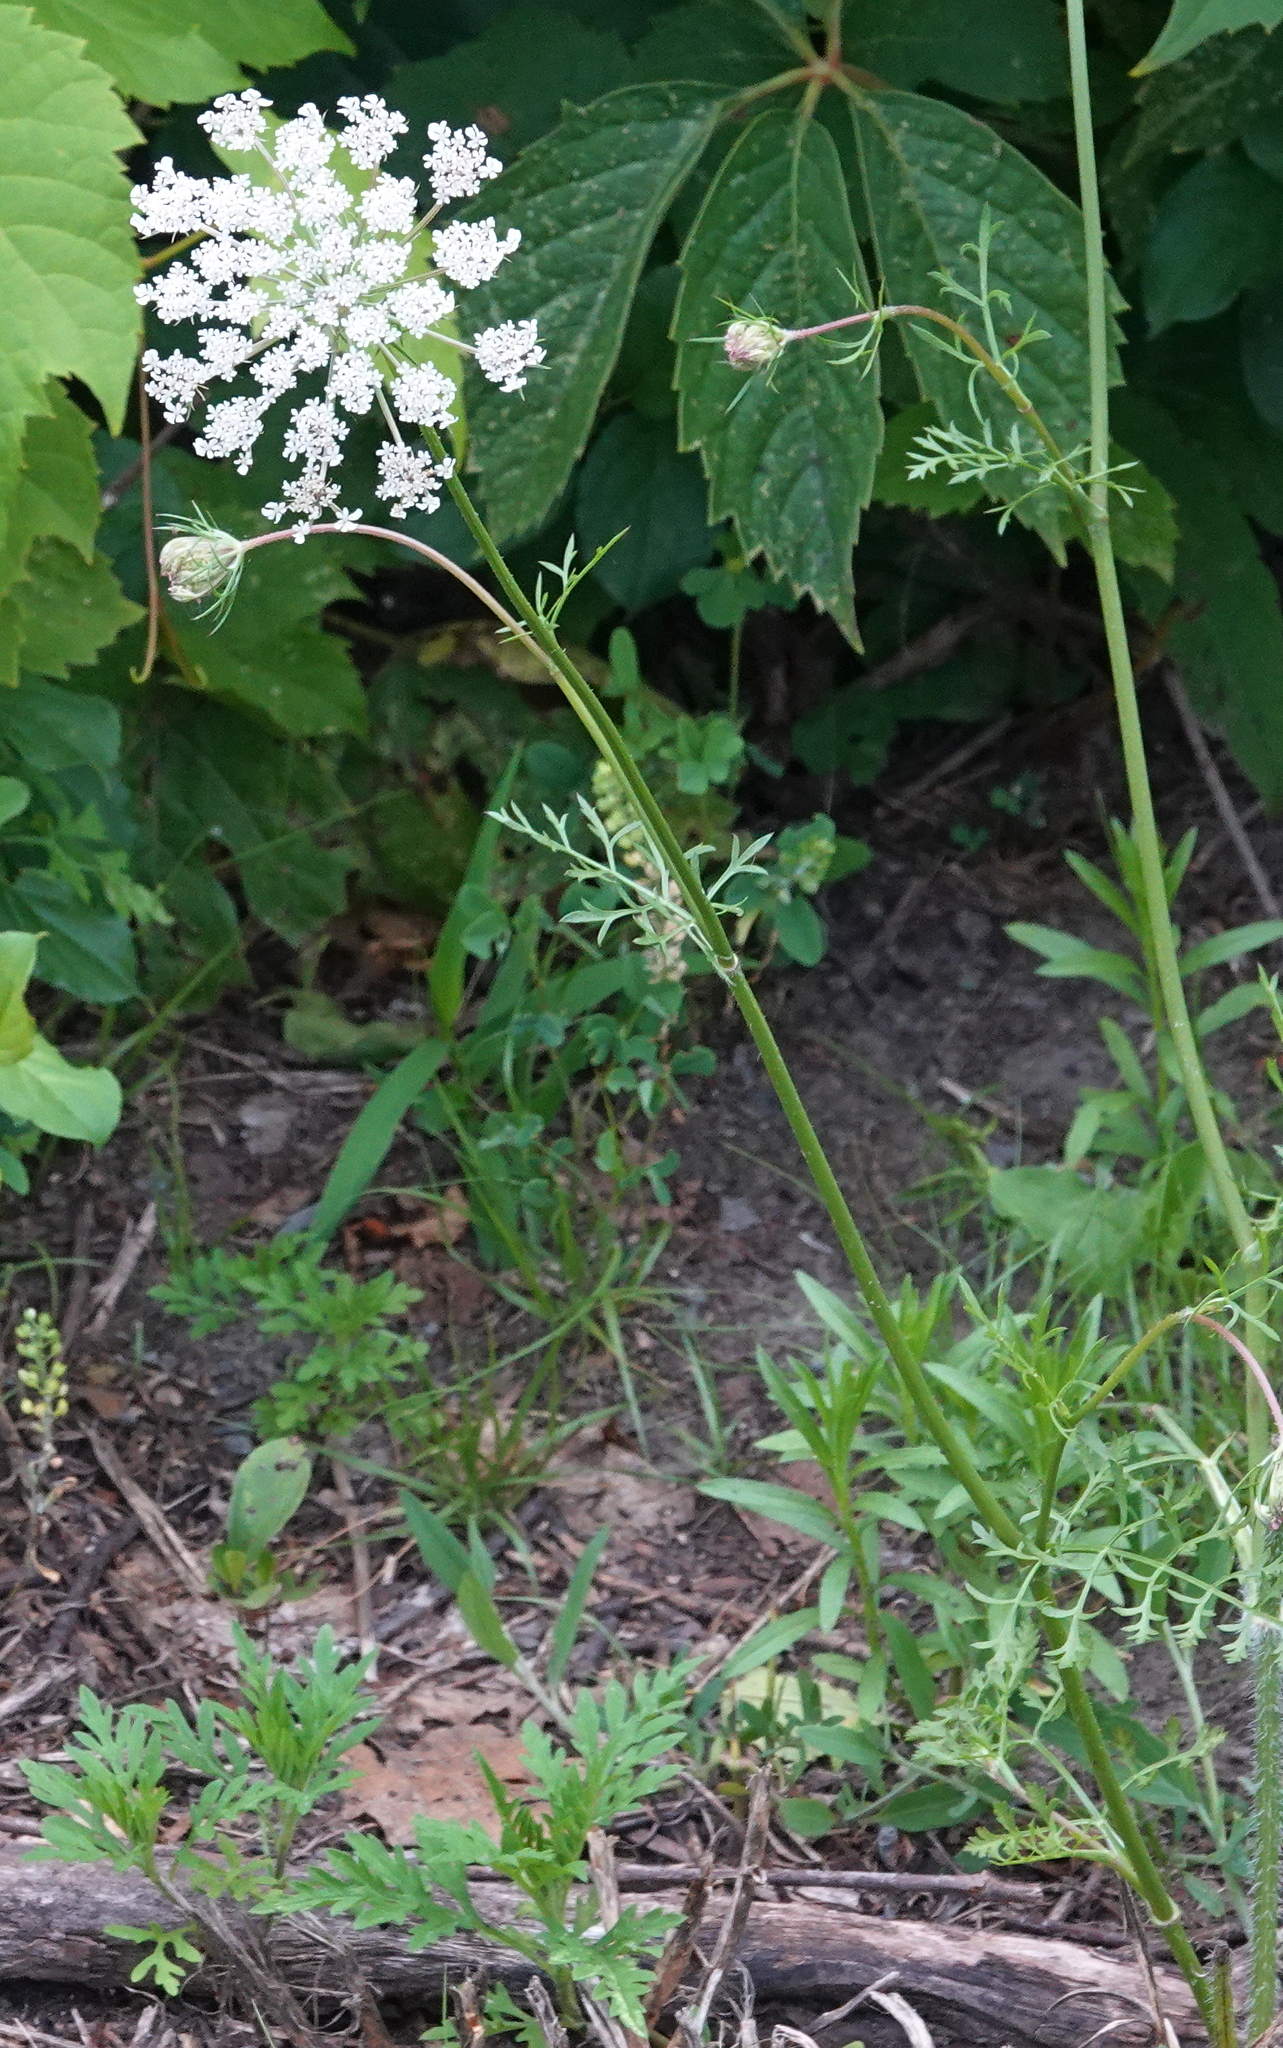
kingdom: Plantae
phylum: Tracheophyta
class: Magnoliopsida
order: Apiales
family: Apiaceae
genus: Daucus
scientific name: Daucus carota
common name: Wild carrot
